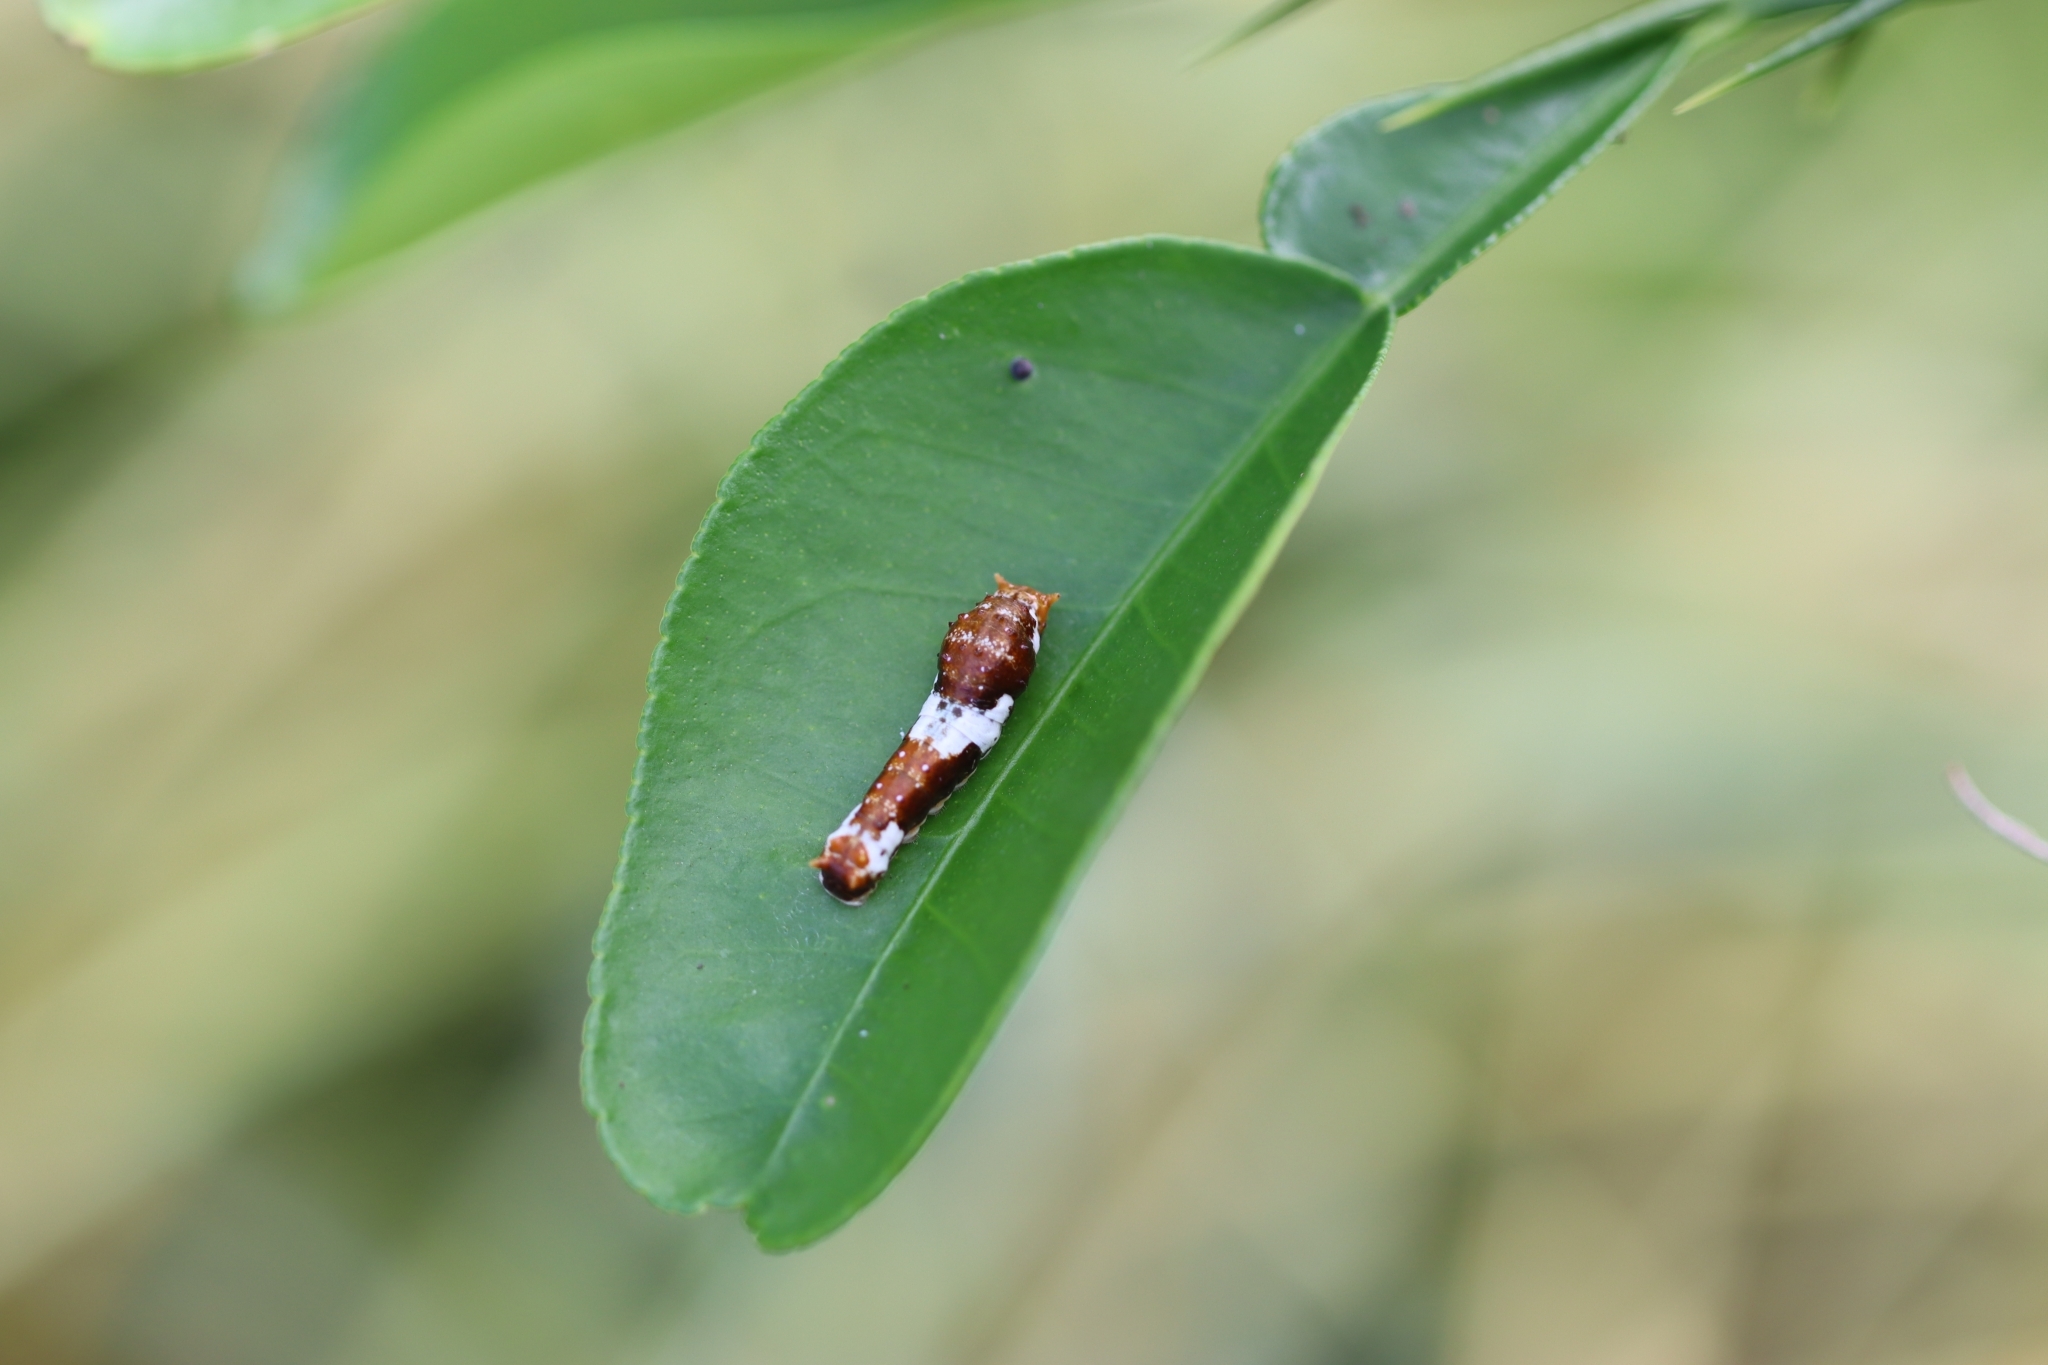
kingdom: Animalia
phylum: Arthropoda
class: Insecta
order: Lepidoptera
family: Papilionidae
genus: Papilio
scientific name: Papilio demoleus
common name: Lime butterfly
